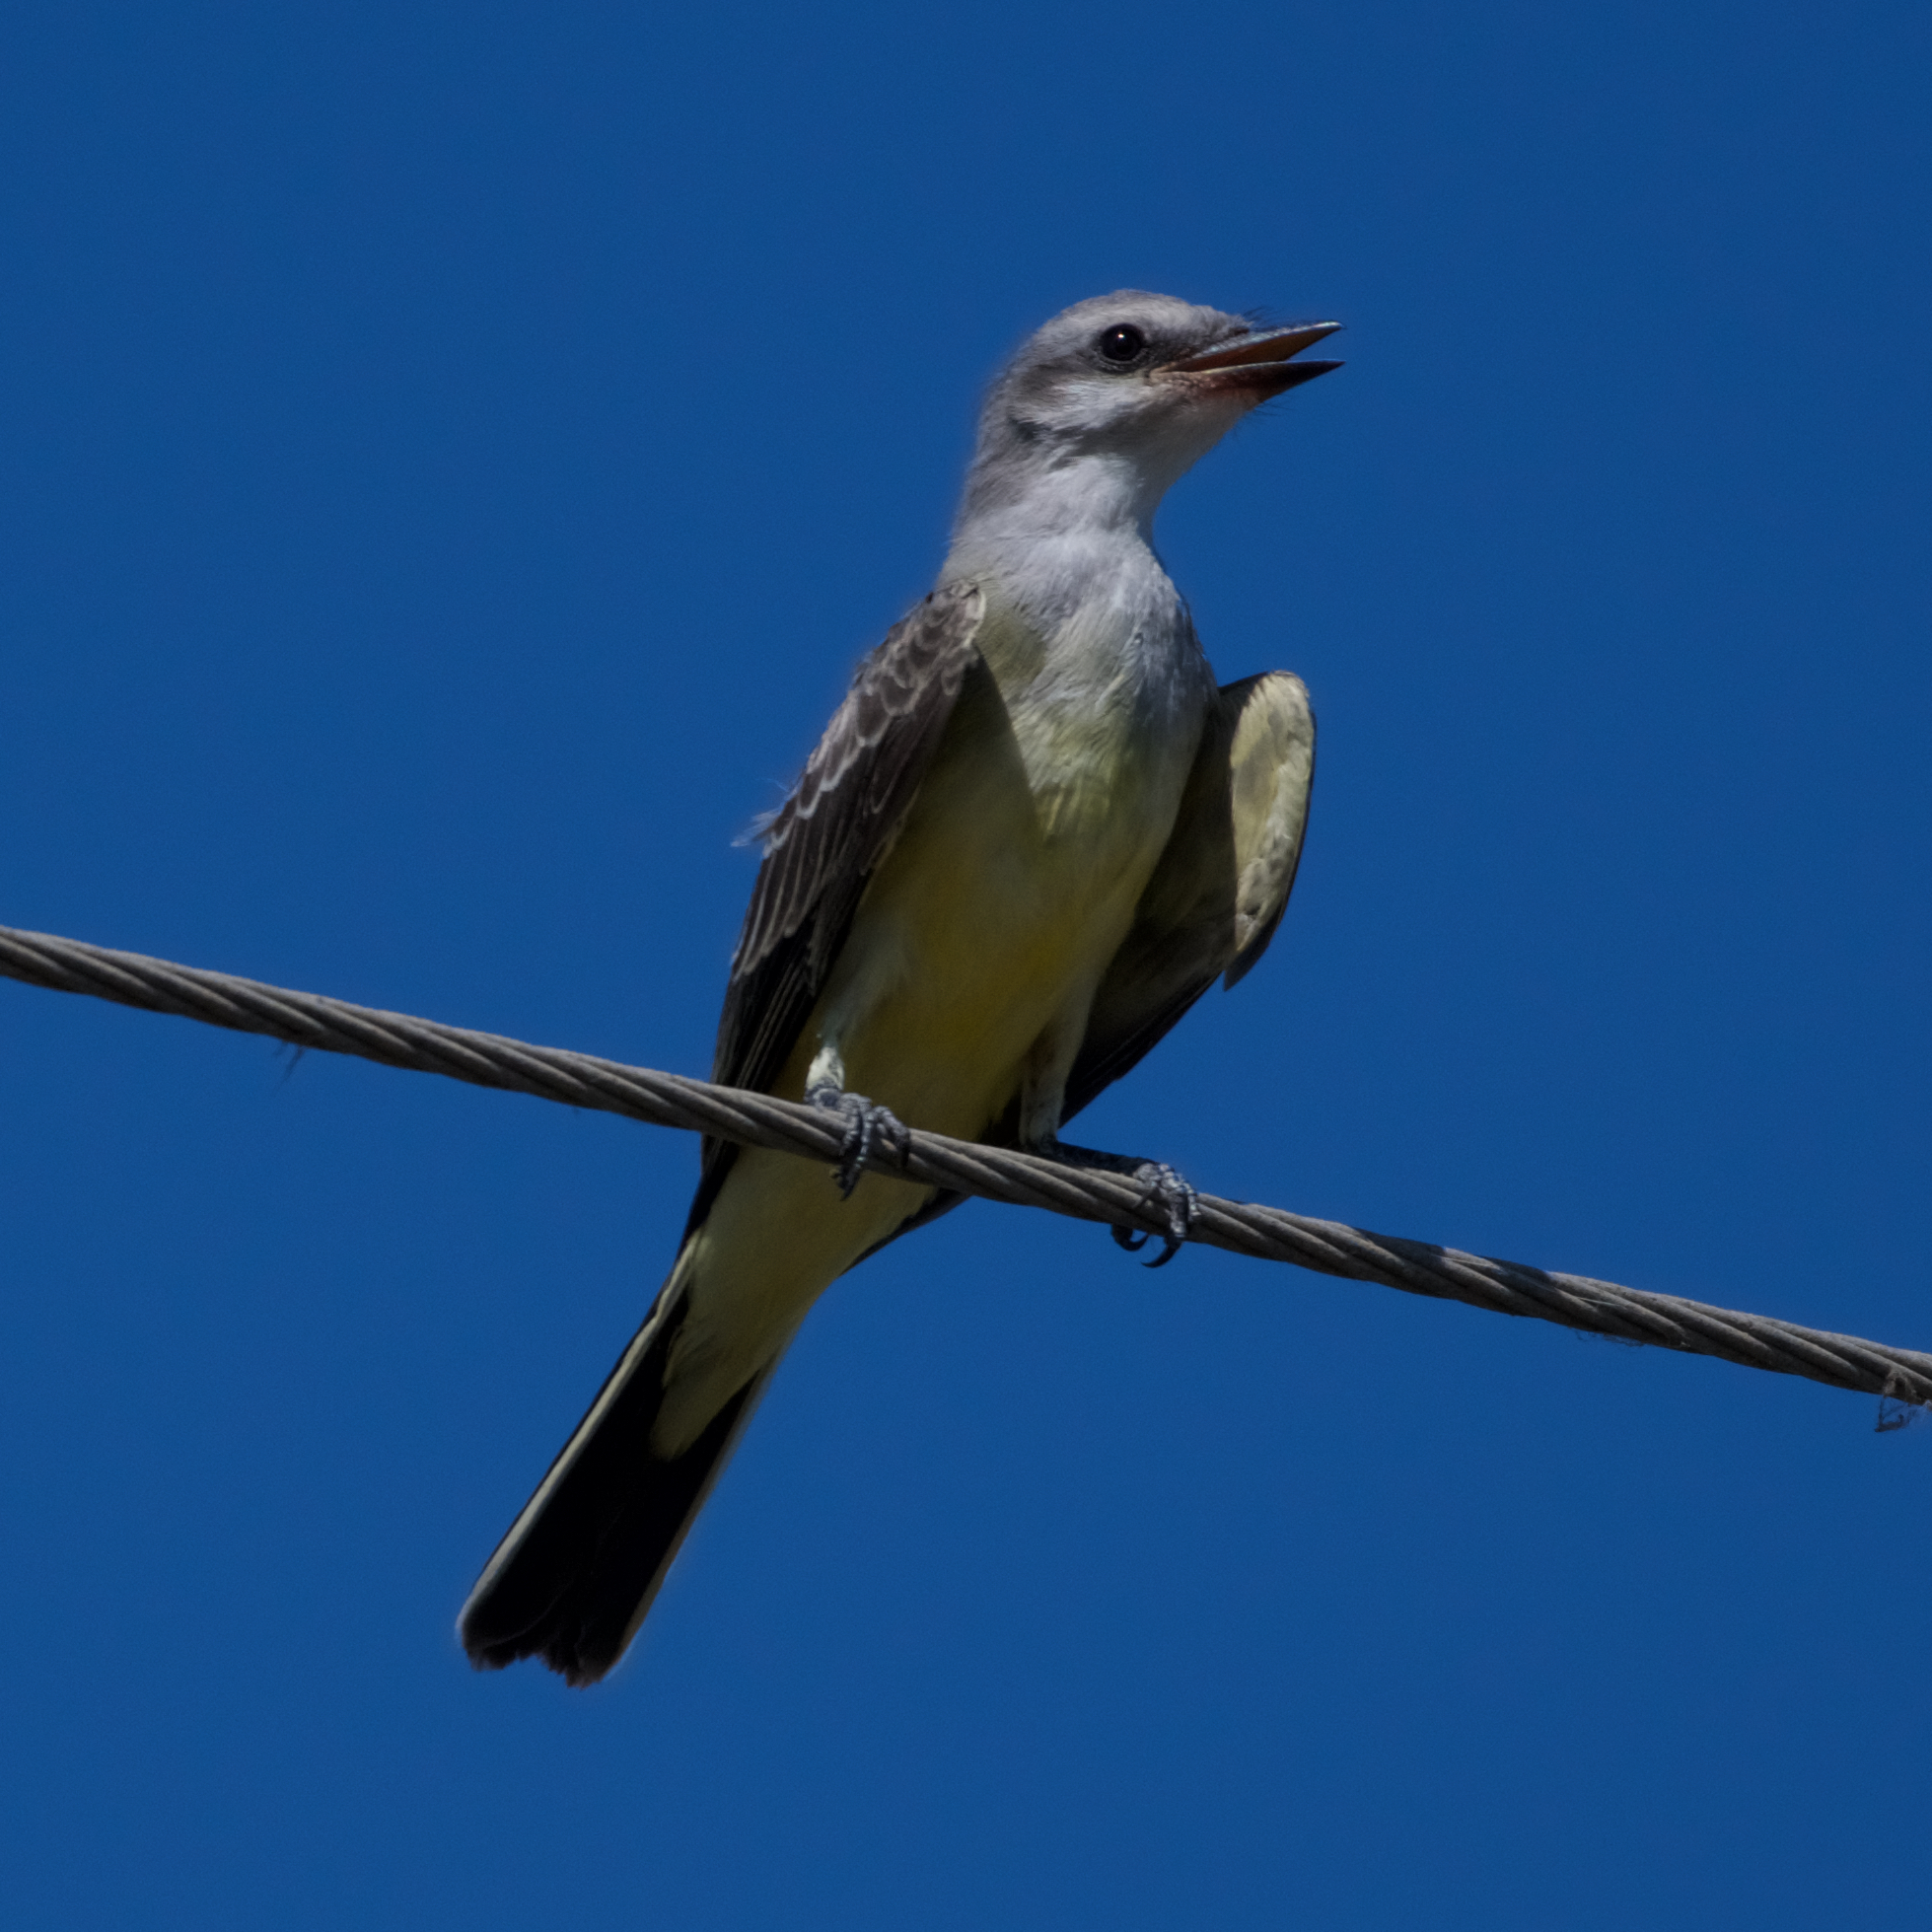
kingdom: Animalia
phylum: Chordata
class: Aves
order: Passeriformes
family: Tyrannidae
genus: Tyrannus
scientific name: Tyrannus verticalis
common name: Western kingbird
